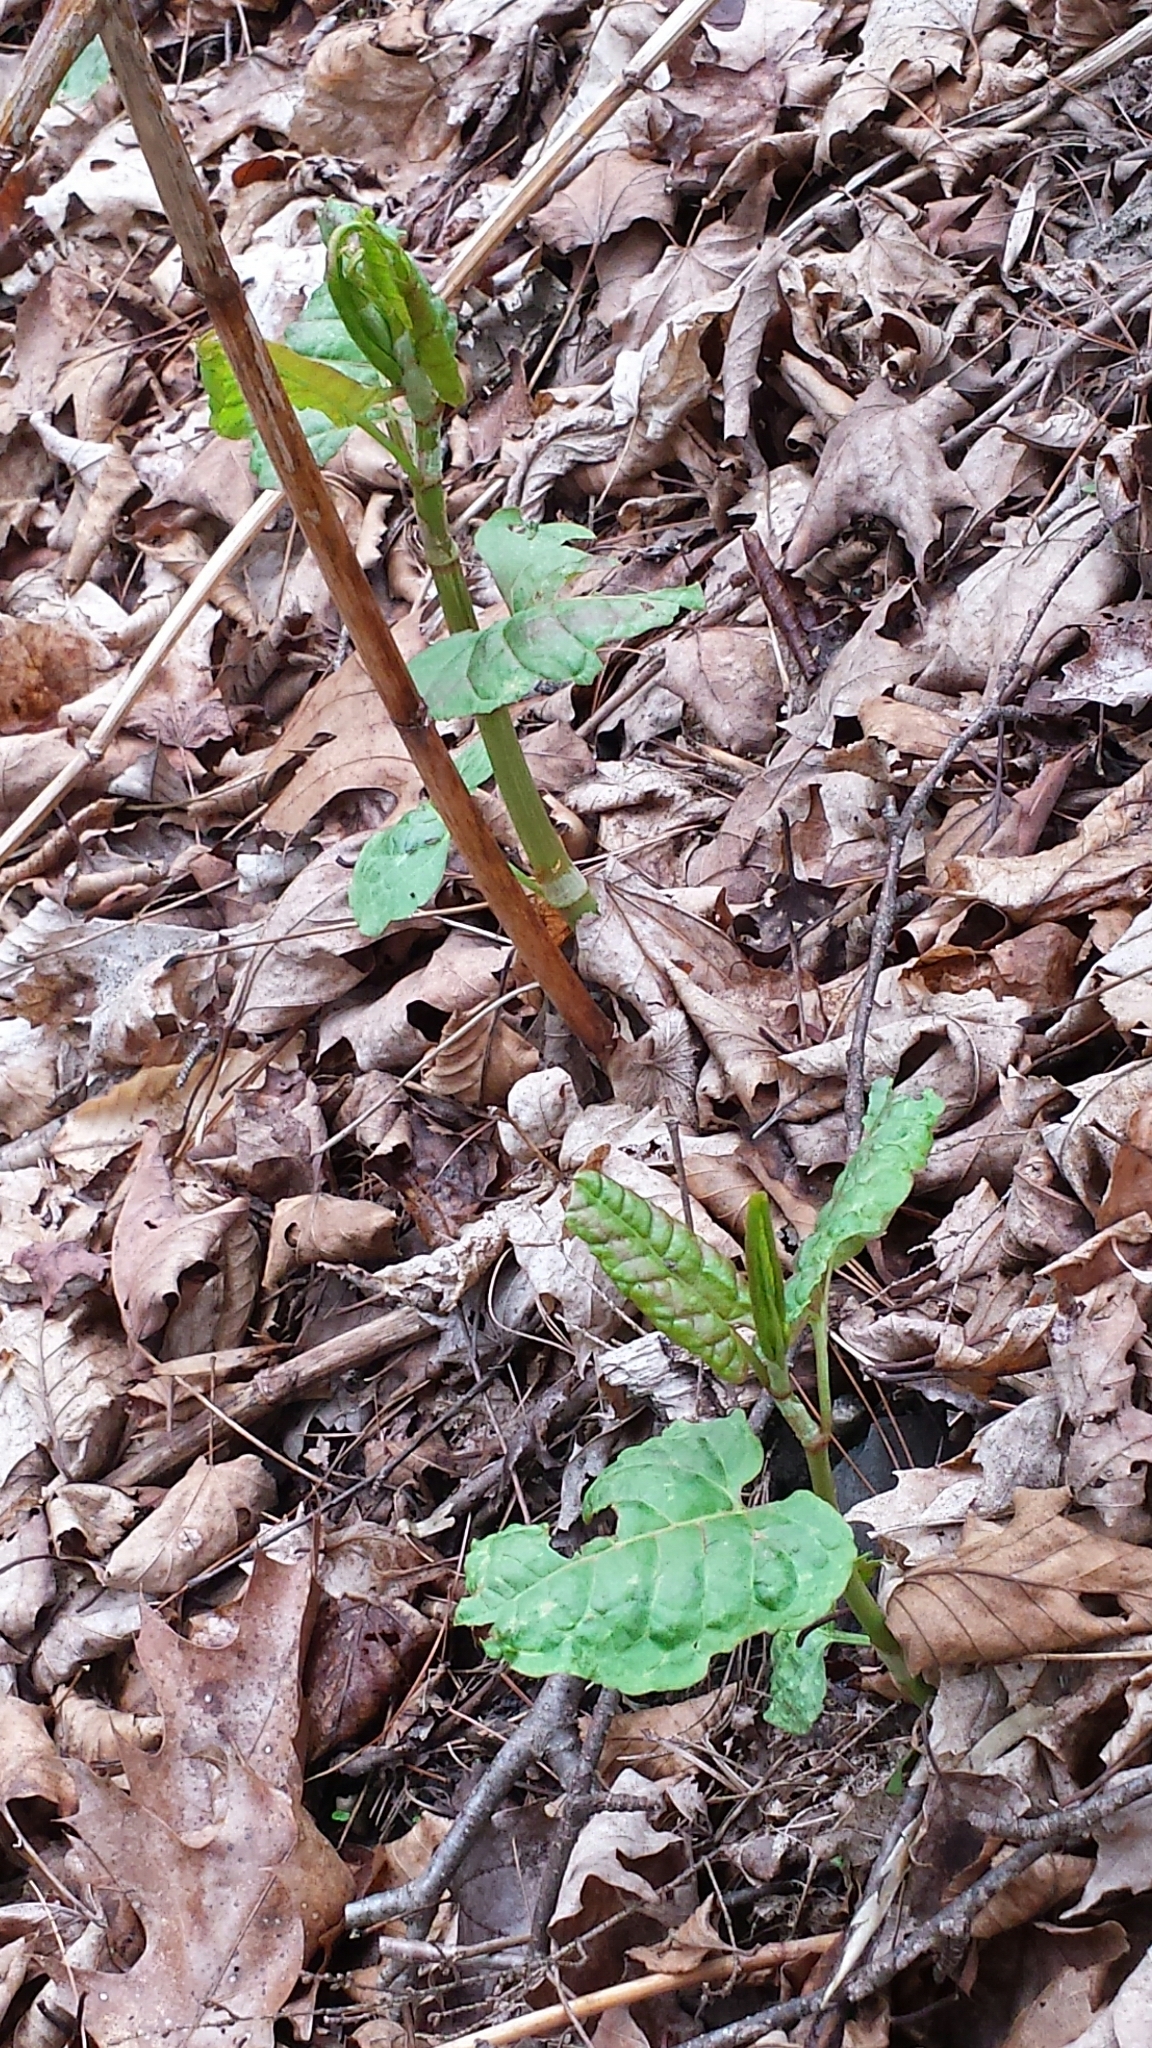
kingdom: Plantae
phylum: Tracheophyta
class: Magnoliopsida
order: Caryophyllales
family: Polygonaceae
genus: Reynoutria
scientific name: Reynoutria japonica
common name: Japanese knotweed
